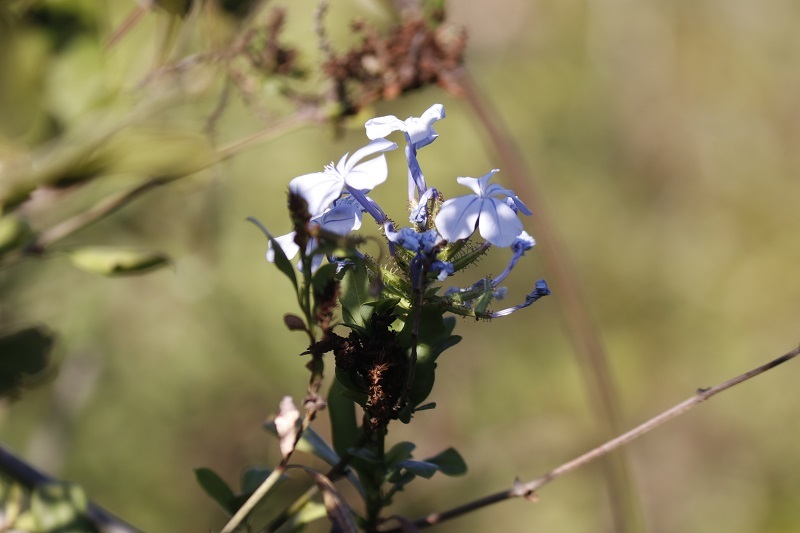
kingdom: Plantae
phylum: Tracheophyta
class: Magnoliopsida
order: Caryophyllales
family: Plumbaginaceae
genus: Plumbago
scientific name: Plumbago auriculata
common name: Cape leadwort
